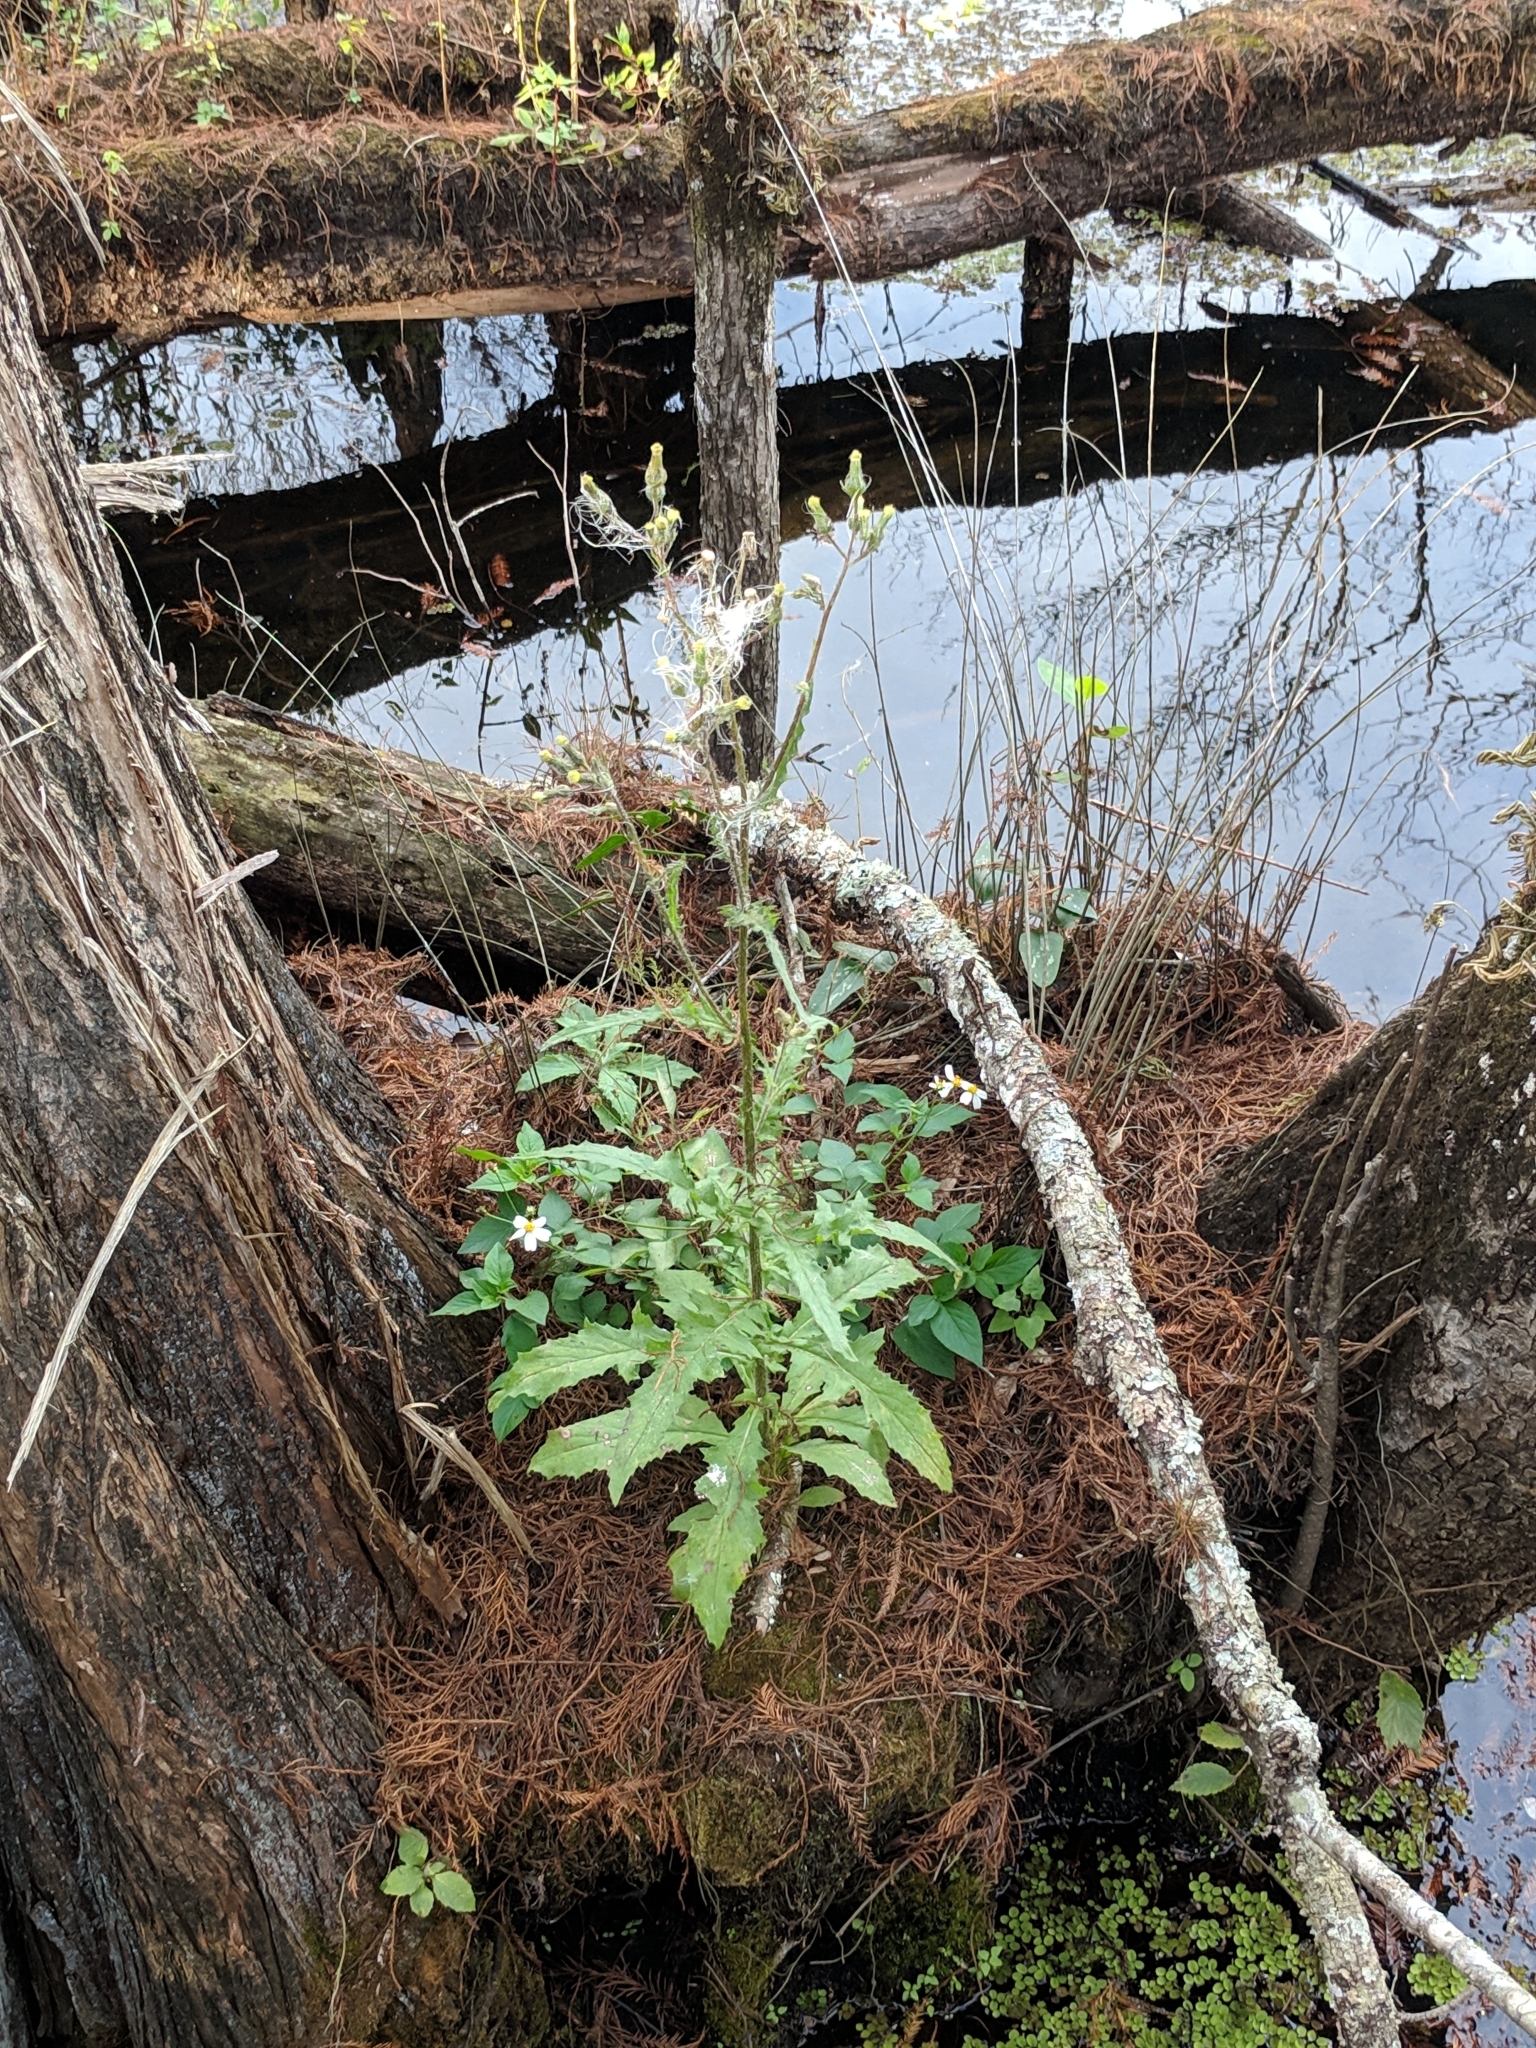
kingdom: Plantae
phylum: Tracheophyta
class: Magnoliopsida
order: Asterales
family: Asteraceae
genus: Erechtites
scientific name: Erechtites hieraciifolius
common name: American burnweed
